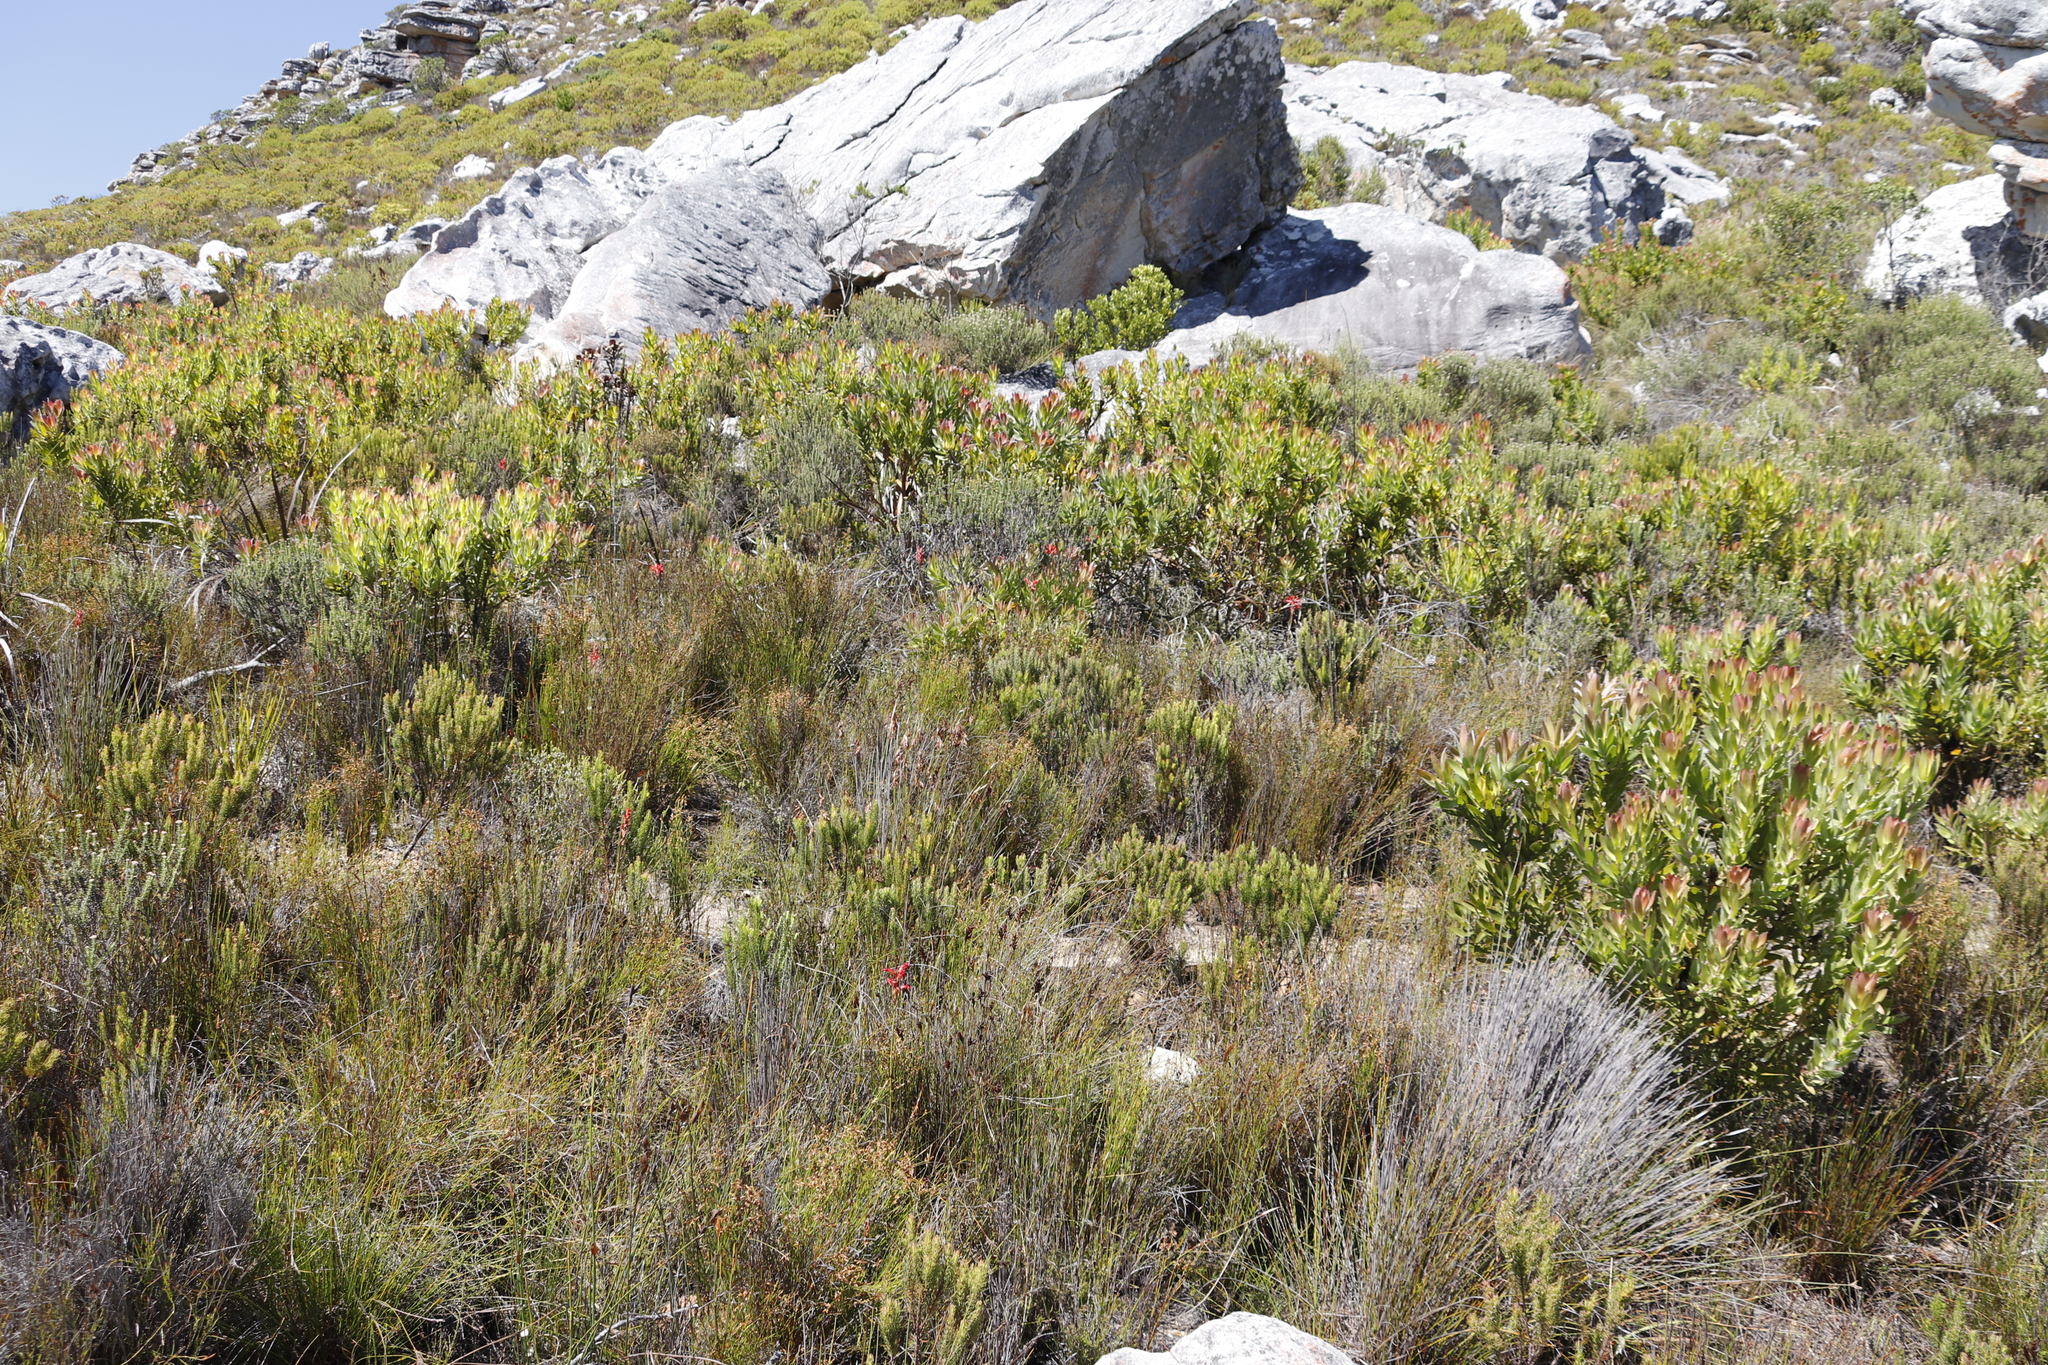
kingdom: Plantae
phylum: Tracheophyta
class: Magnoliopsida
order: Proteales
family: Proteaceae
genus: Leucadendron
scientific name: Leucadendron laureolum
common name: Golden sunshinebush
